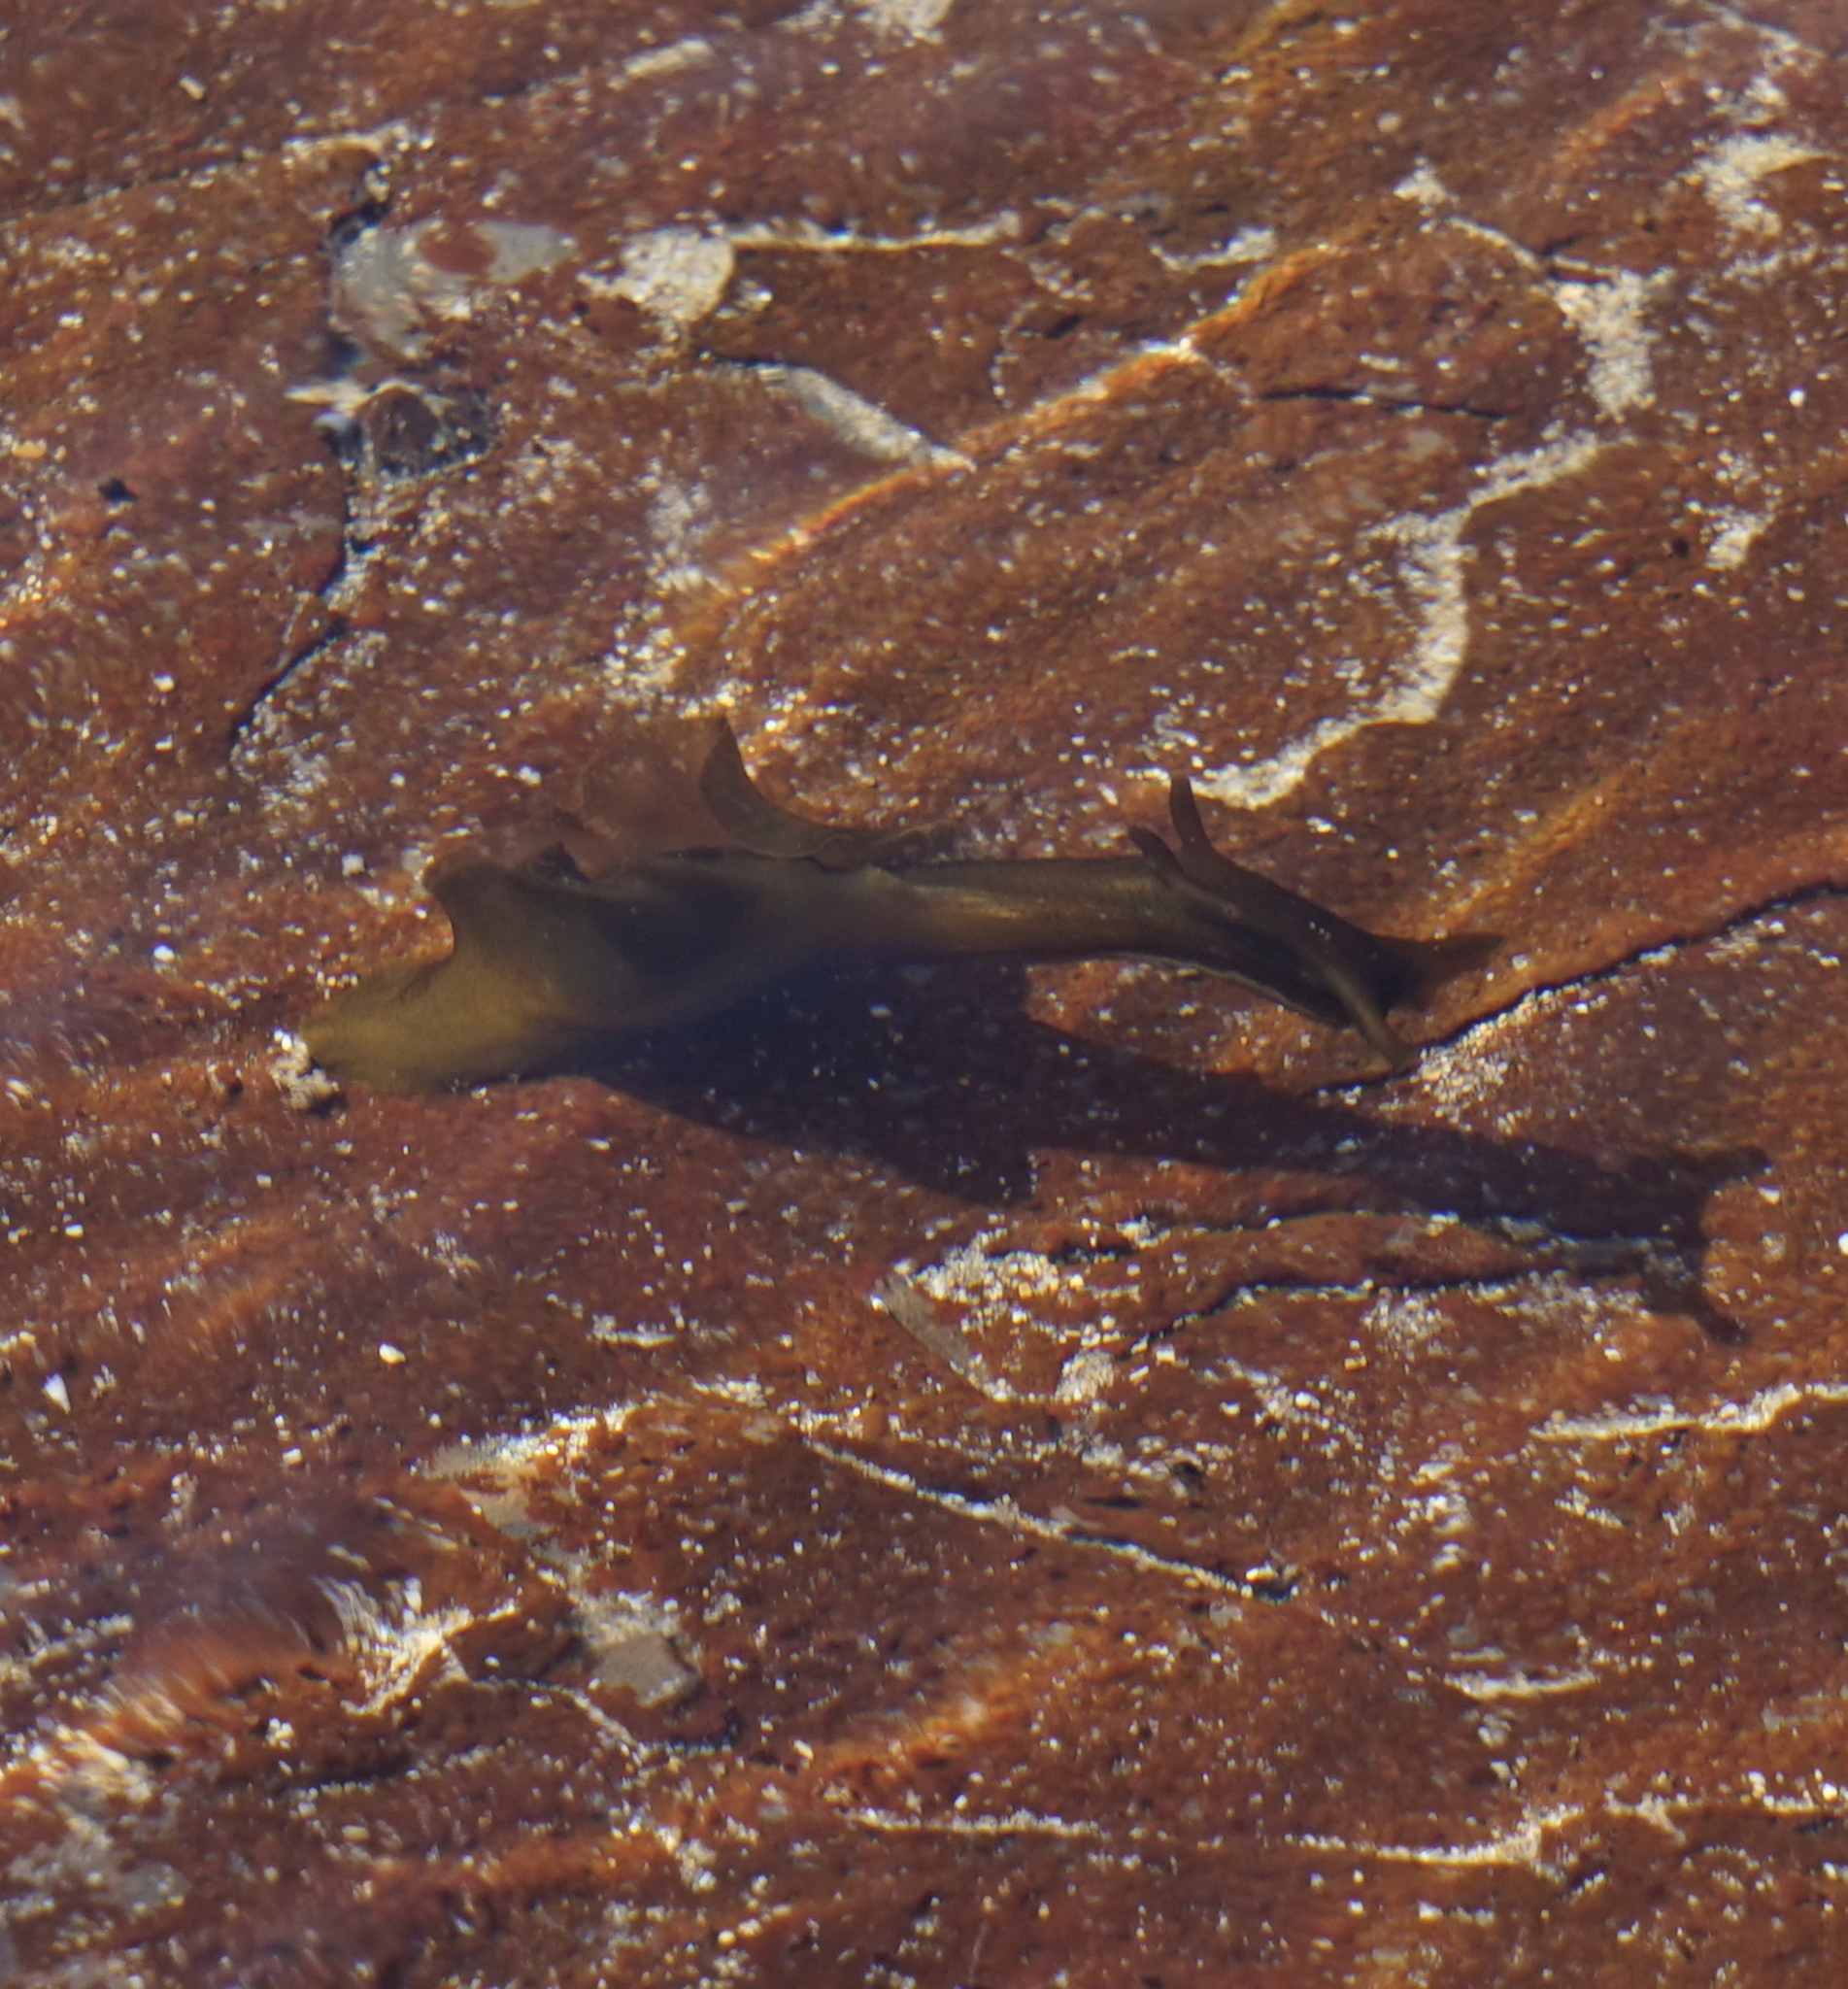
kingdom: Animalia
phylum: Mollusca
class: Gastropoda
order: Aplysiida
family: Aplysiidae
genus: Aplysia
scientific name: Aplysia juliana
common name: Walking sea hare
